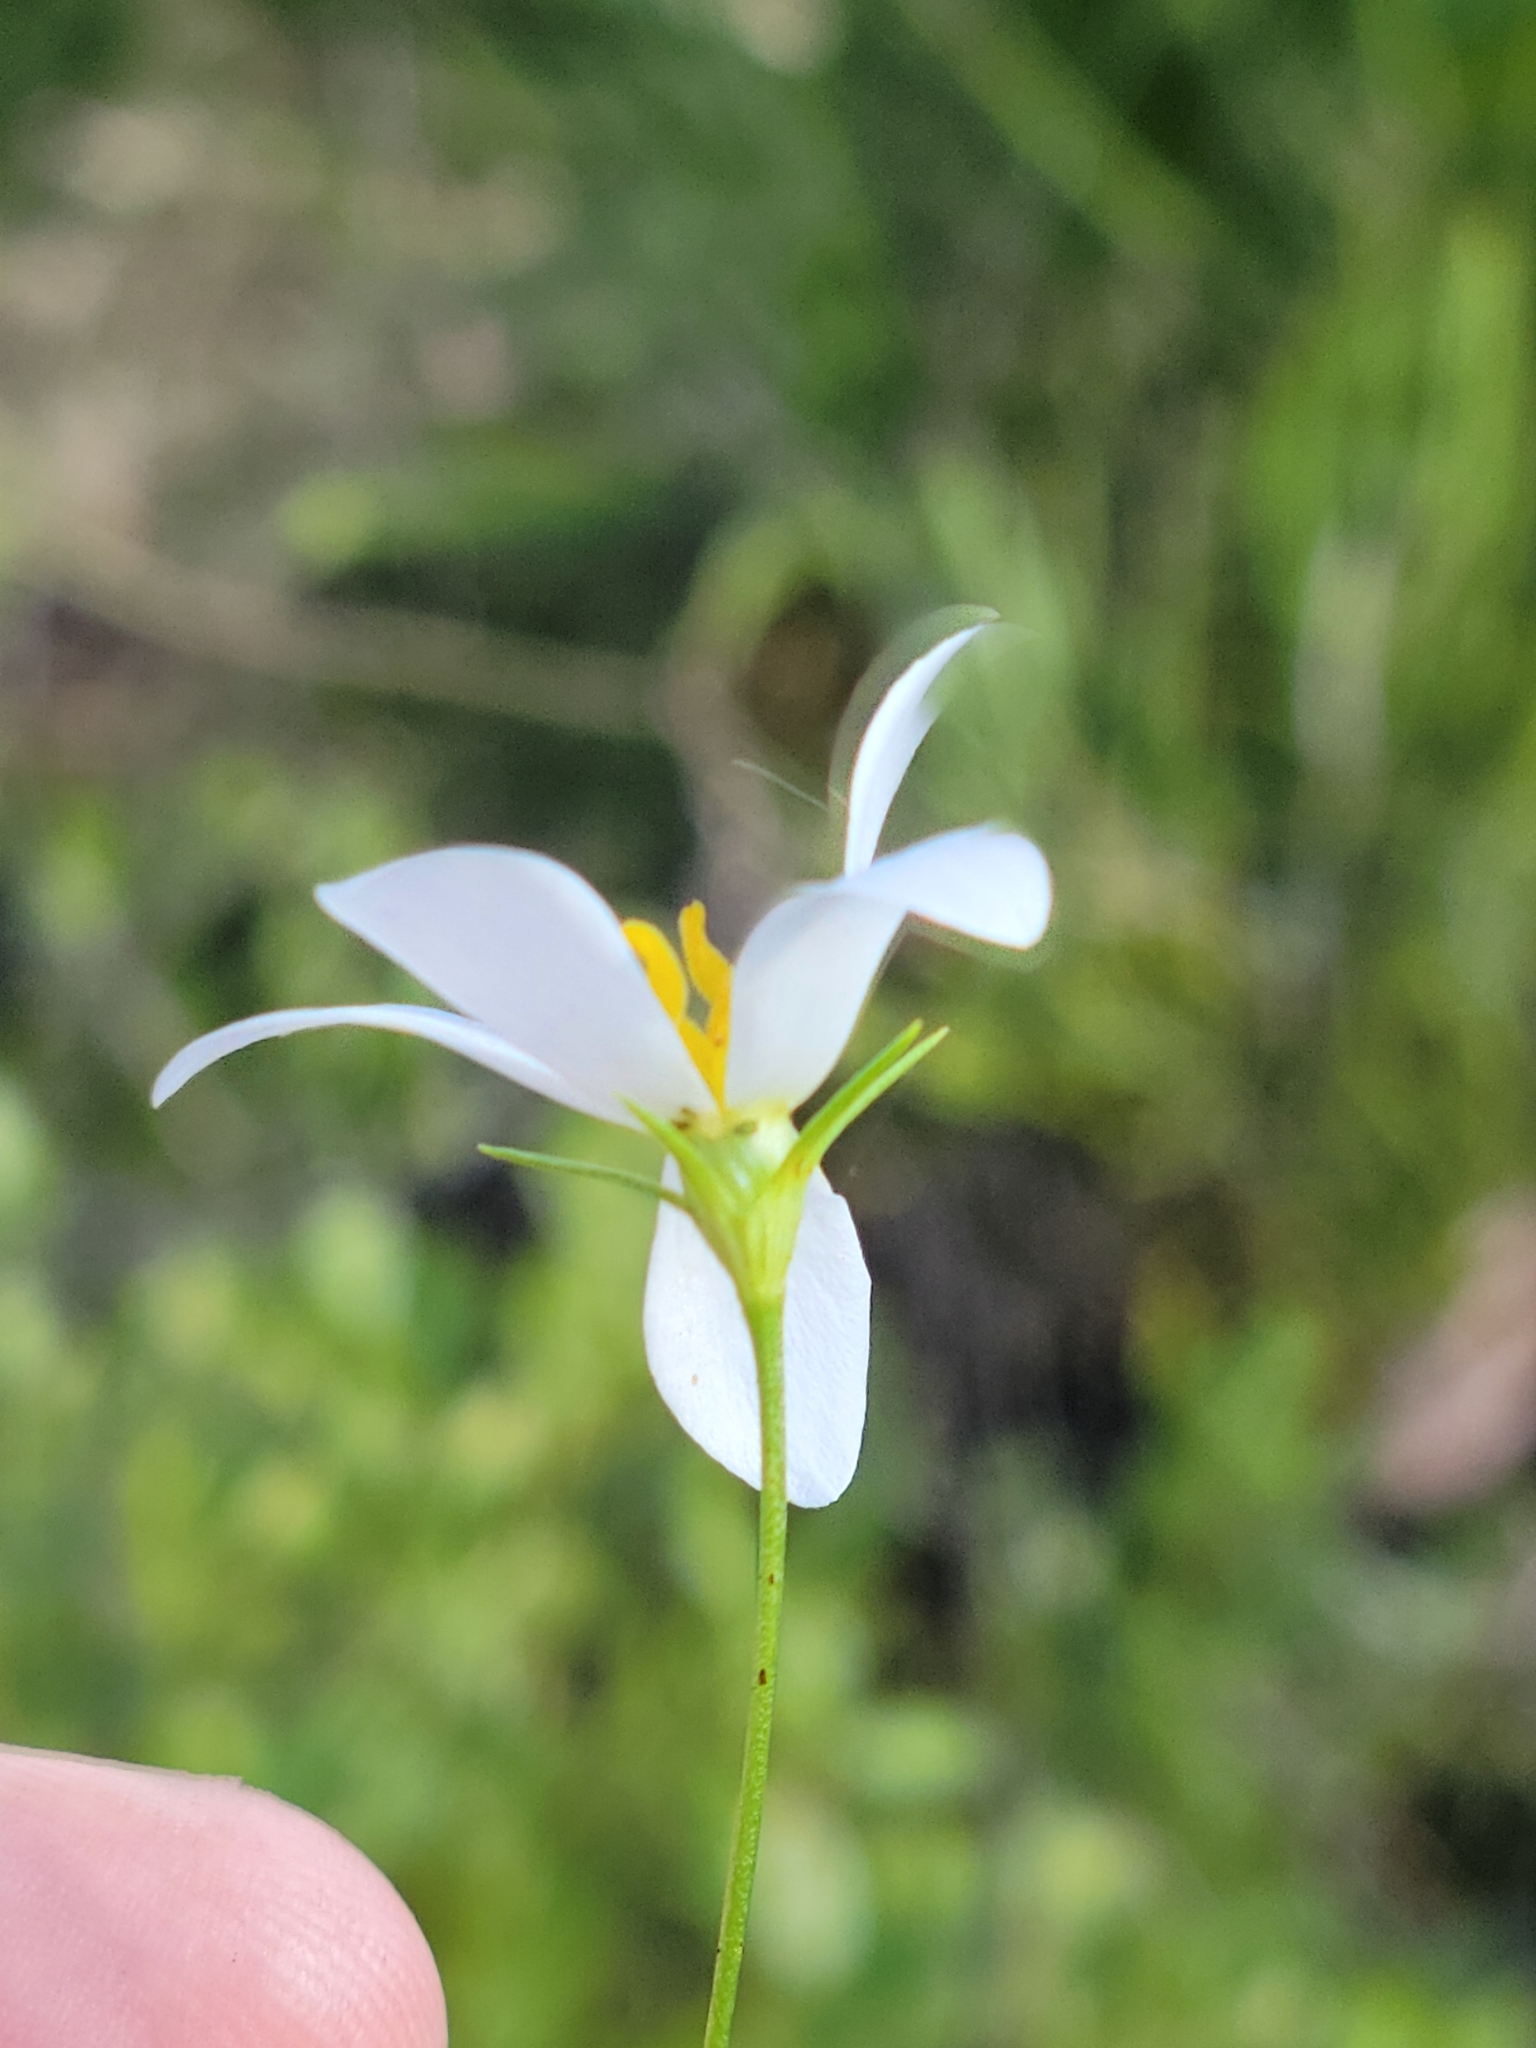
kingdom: Plantae
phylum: Tracheophyta
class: Magnoliopsida
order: Gentianales
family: Gentianaceae
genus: Sabatia
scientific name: Sabatia brevifolia
